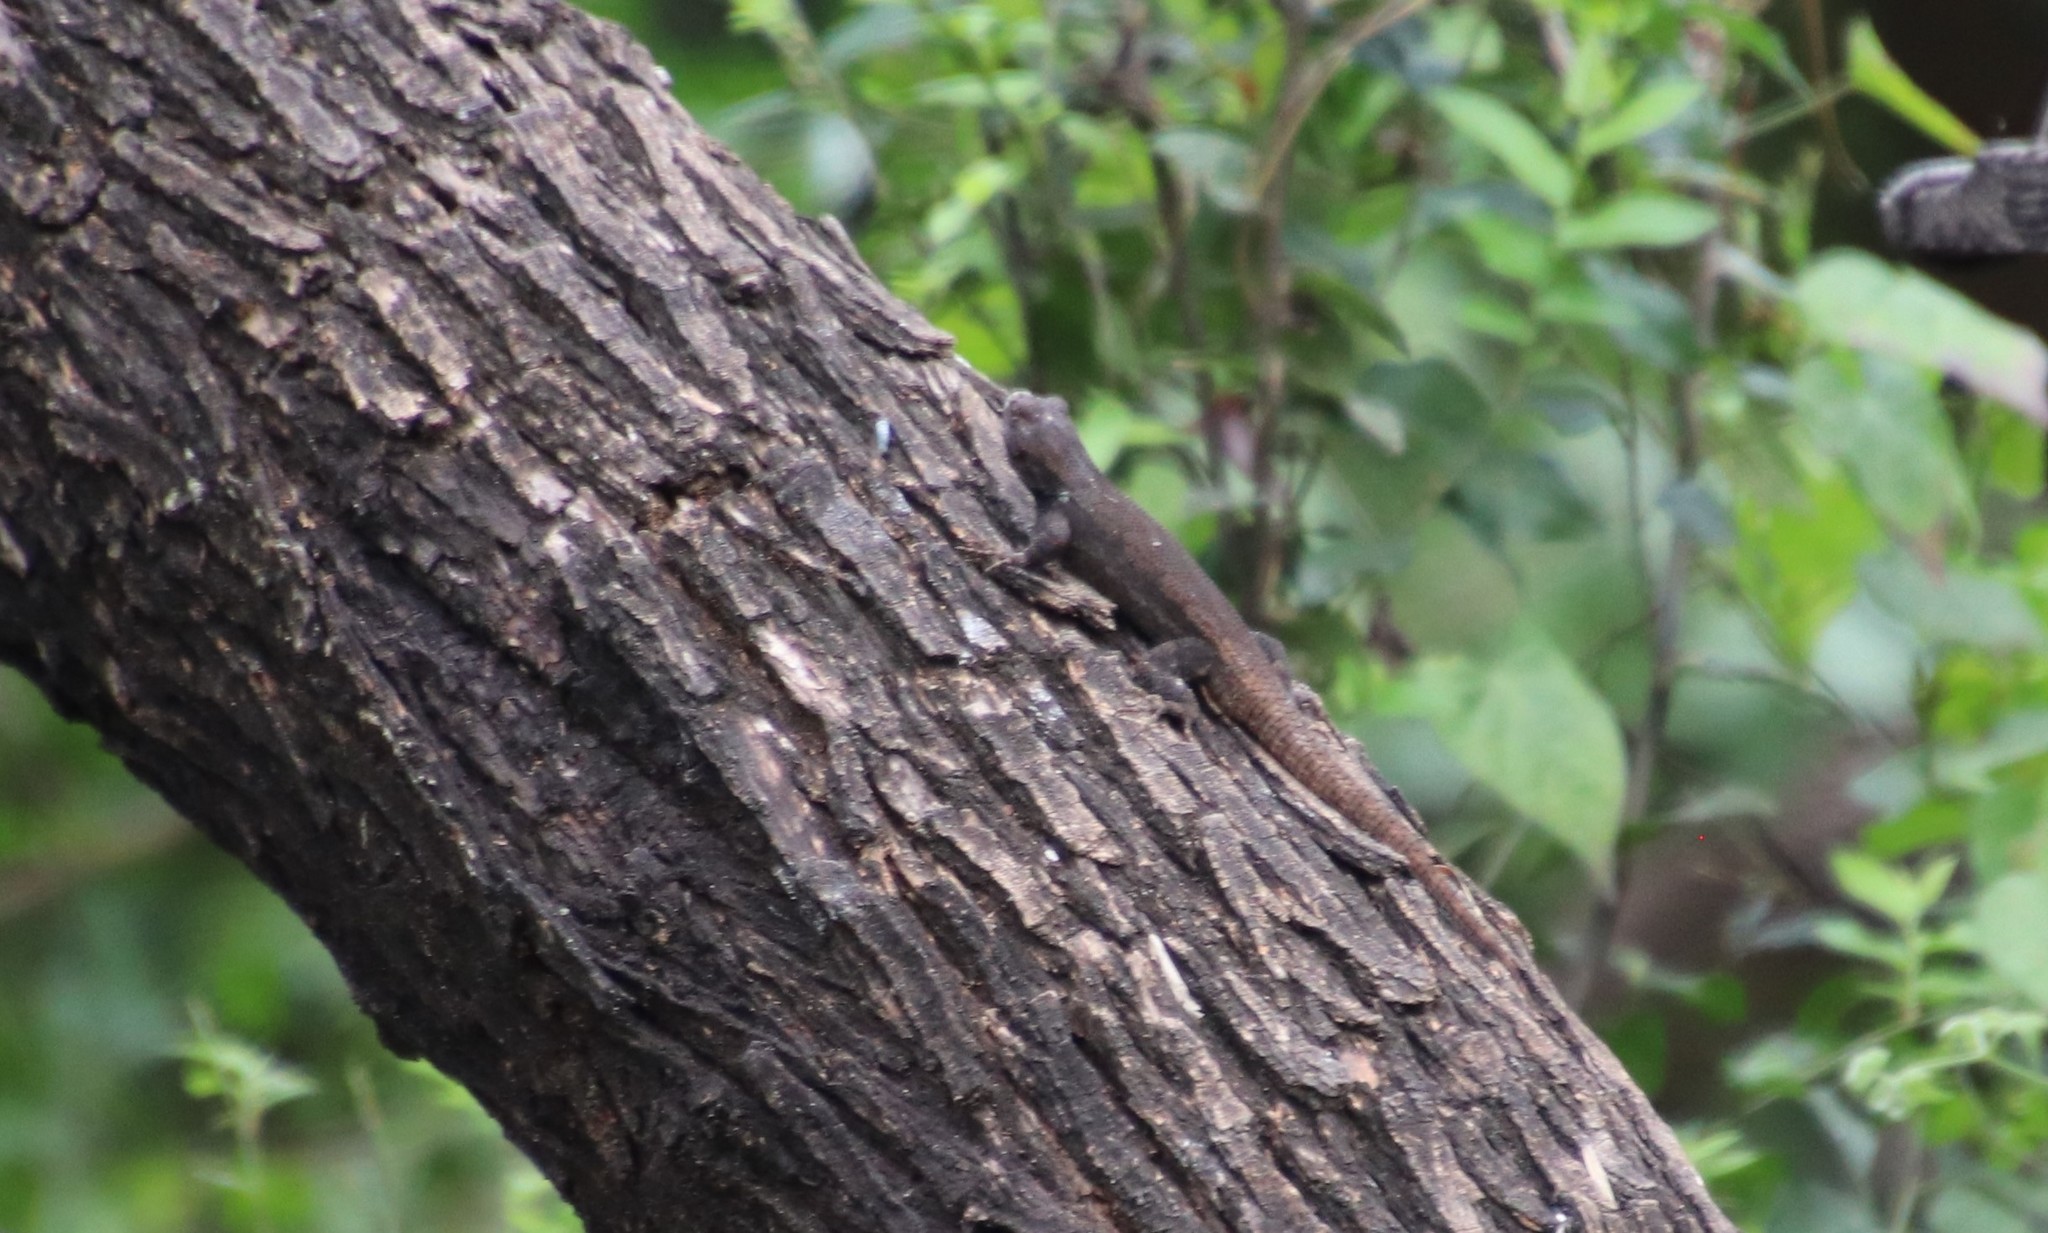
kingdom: Animalia
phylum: Chordata
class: Squamata
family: Phrynosomatidae
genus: Sceloporus
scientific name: Sceloporus grammicus
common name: Mesquite lizard
